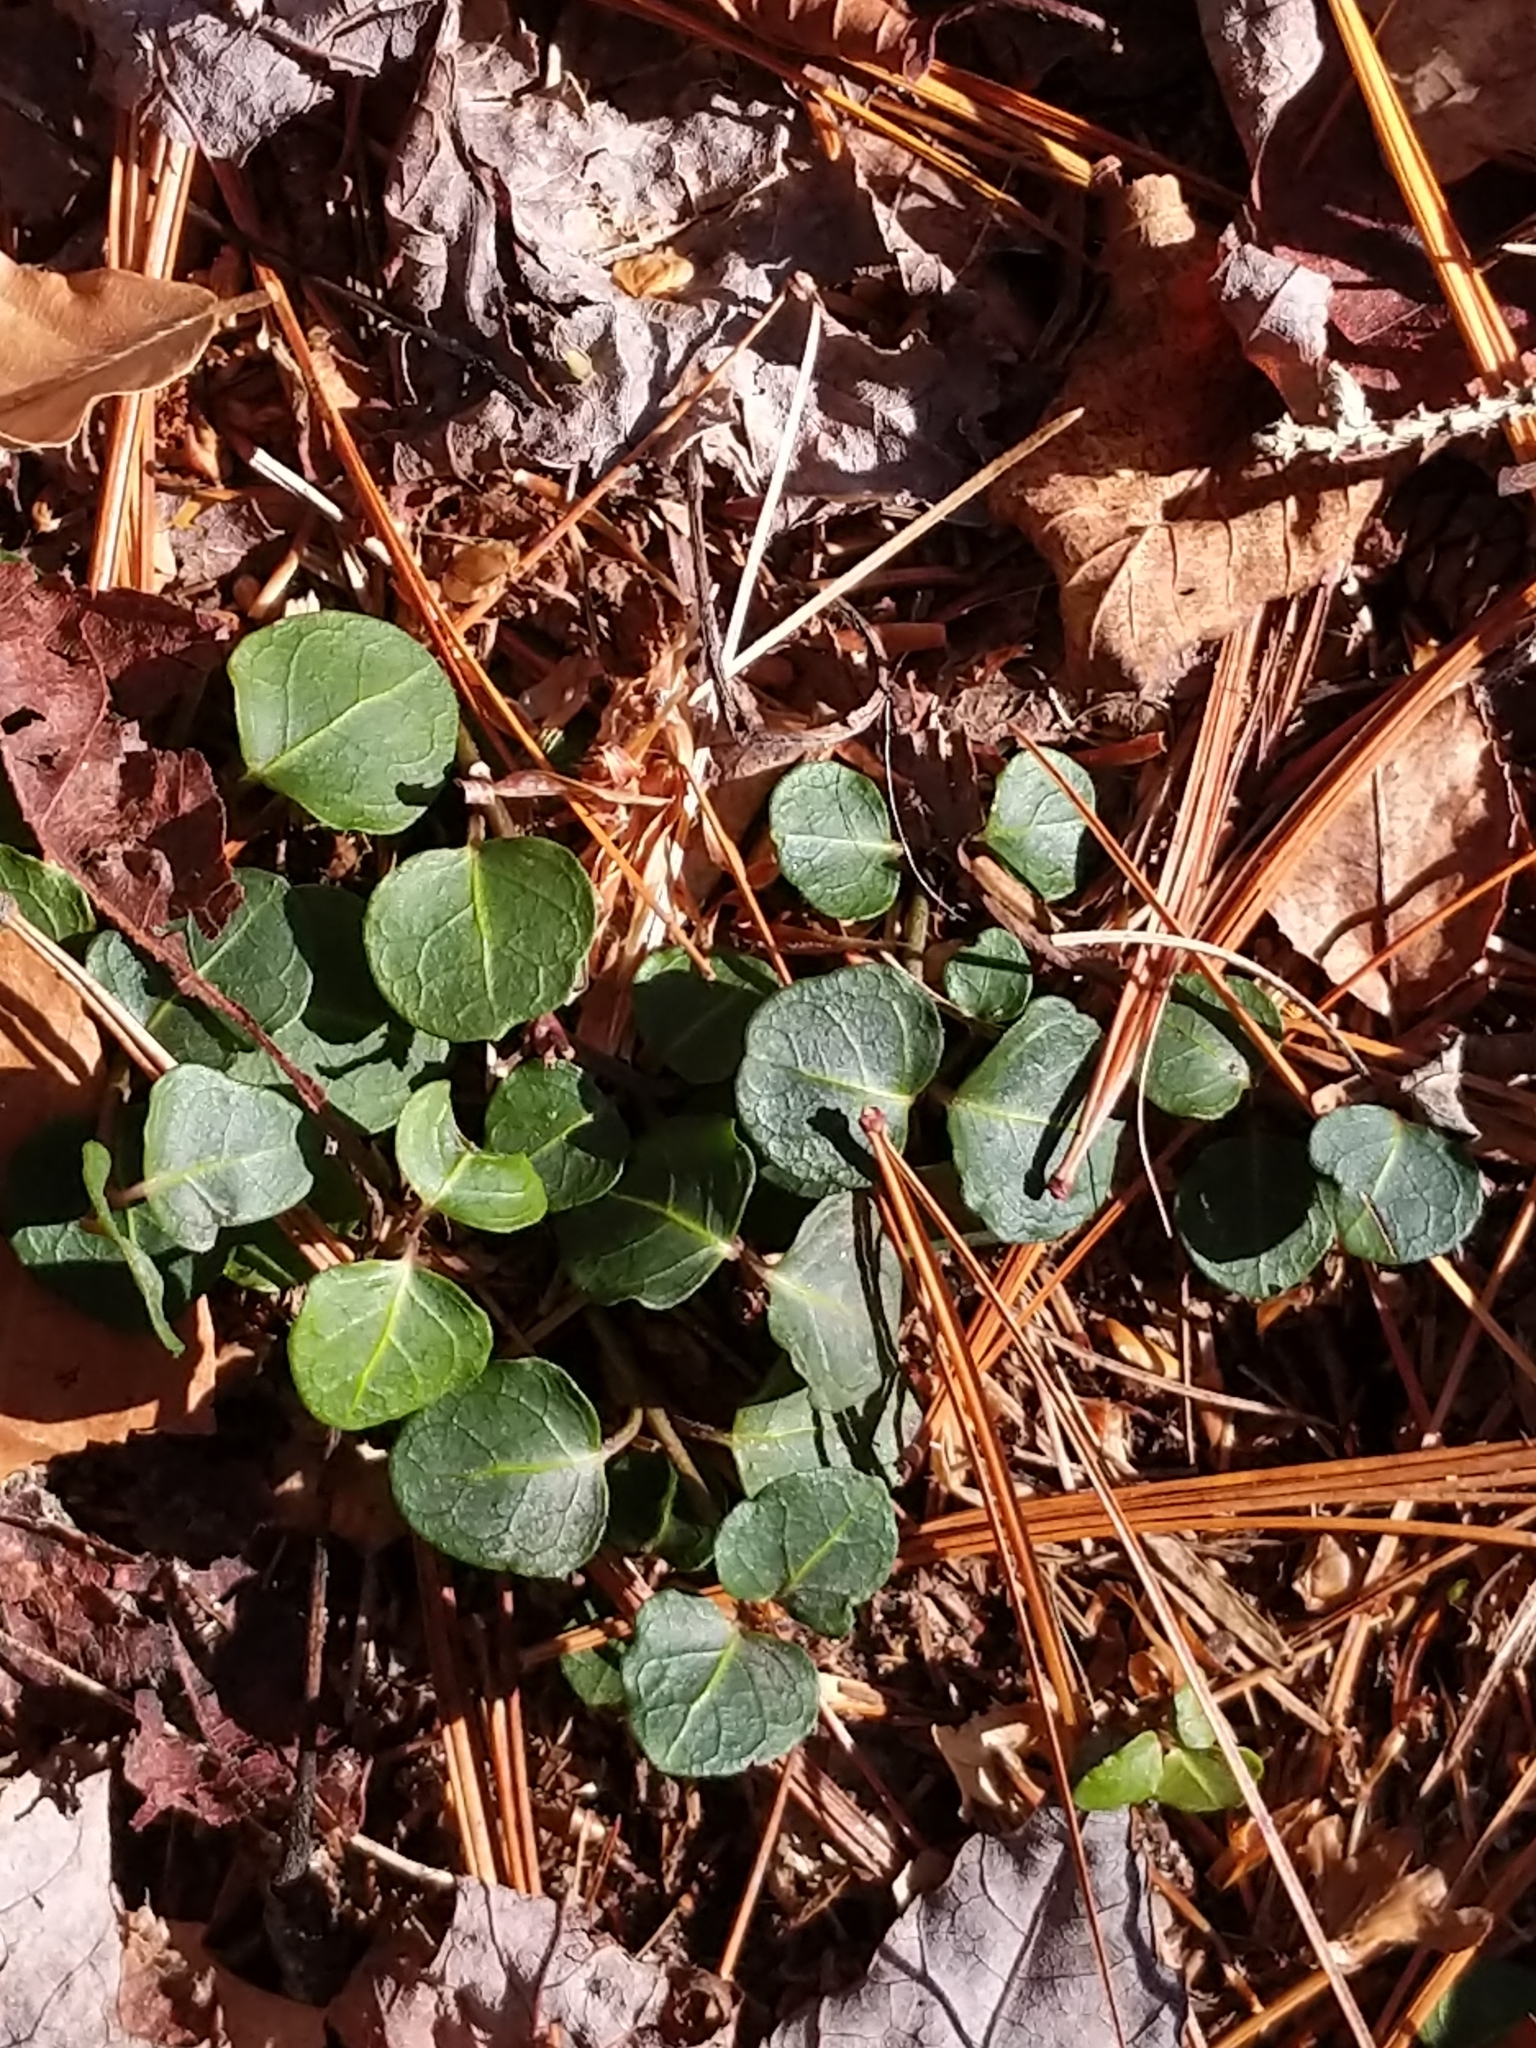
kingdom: Plantae
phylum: Tracheophyta
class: Magnoliopsida
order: Gentianales
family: Rubiaceae
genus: Mitchella
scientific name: Mitchella repens
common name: Partridge-berry
